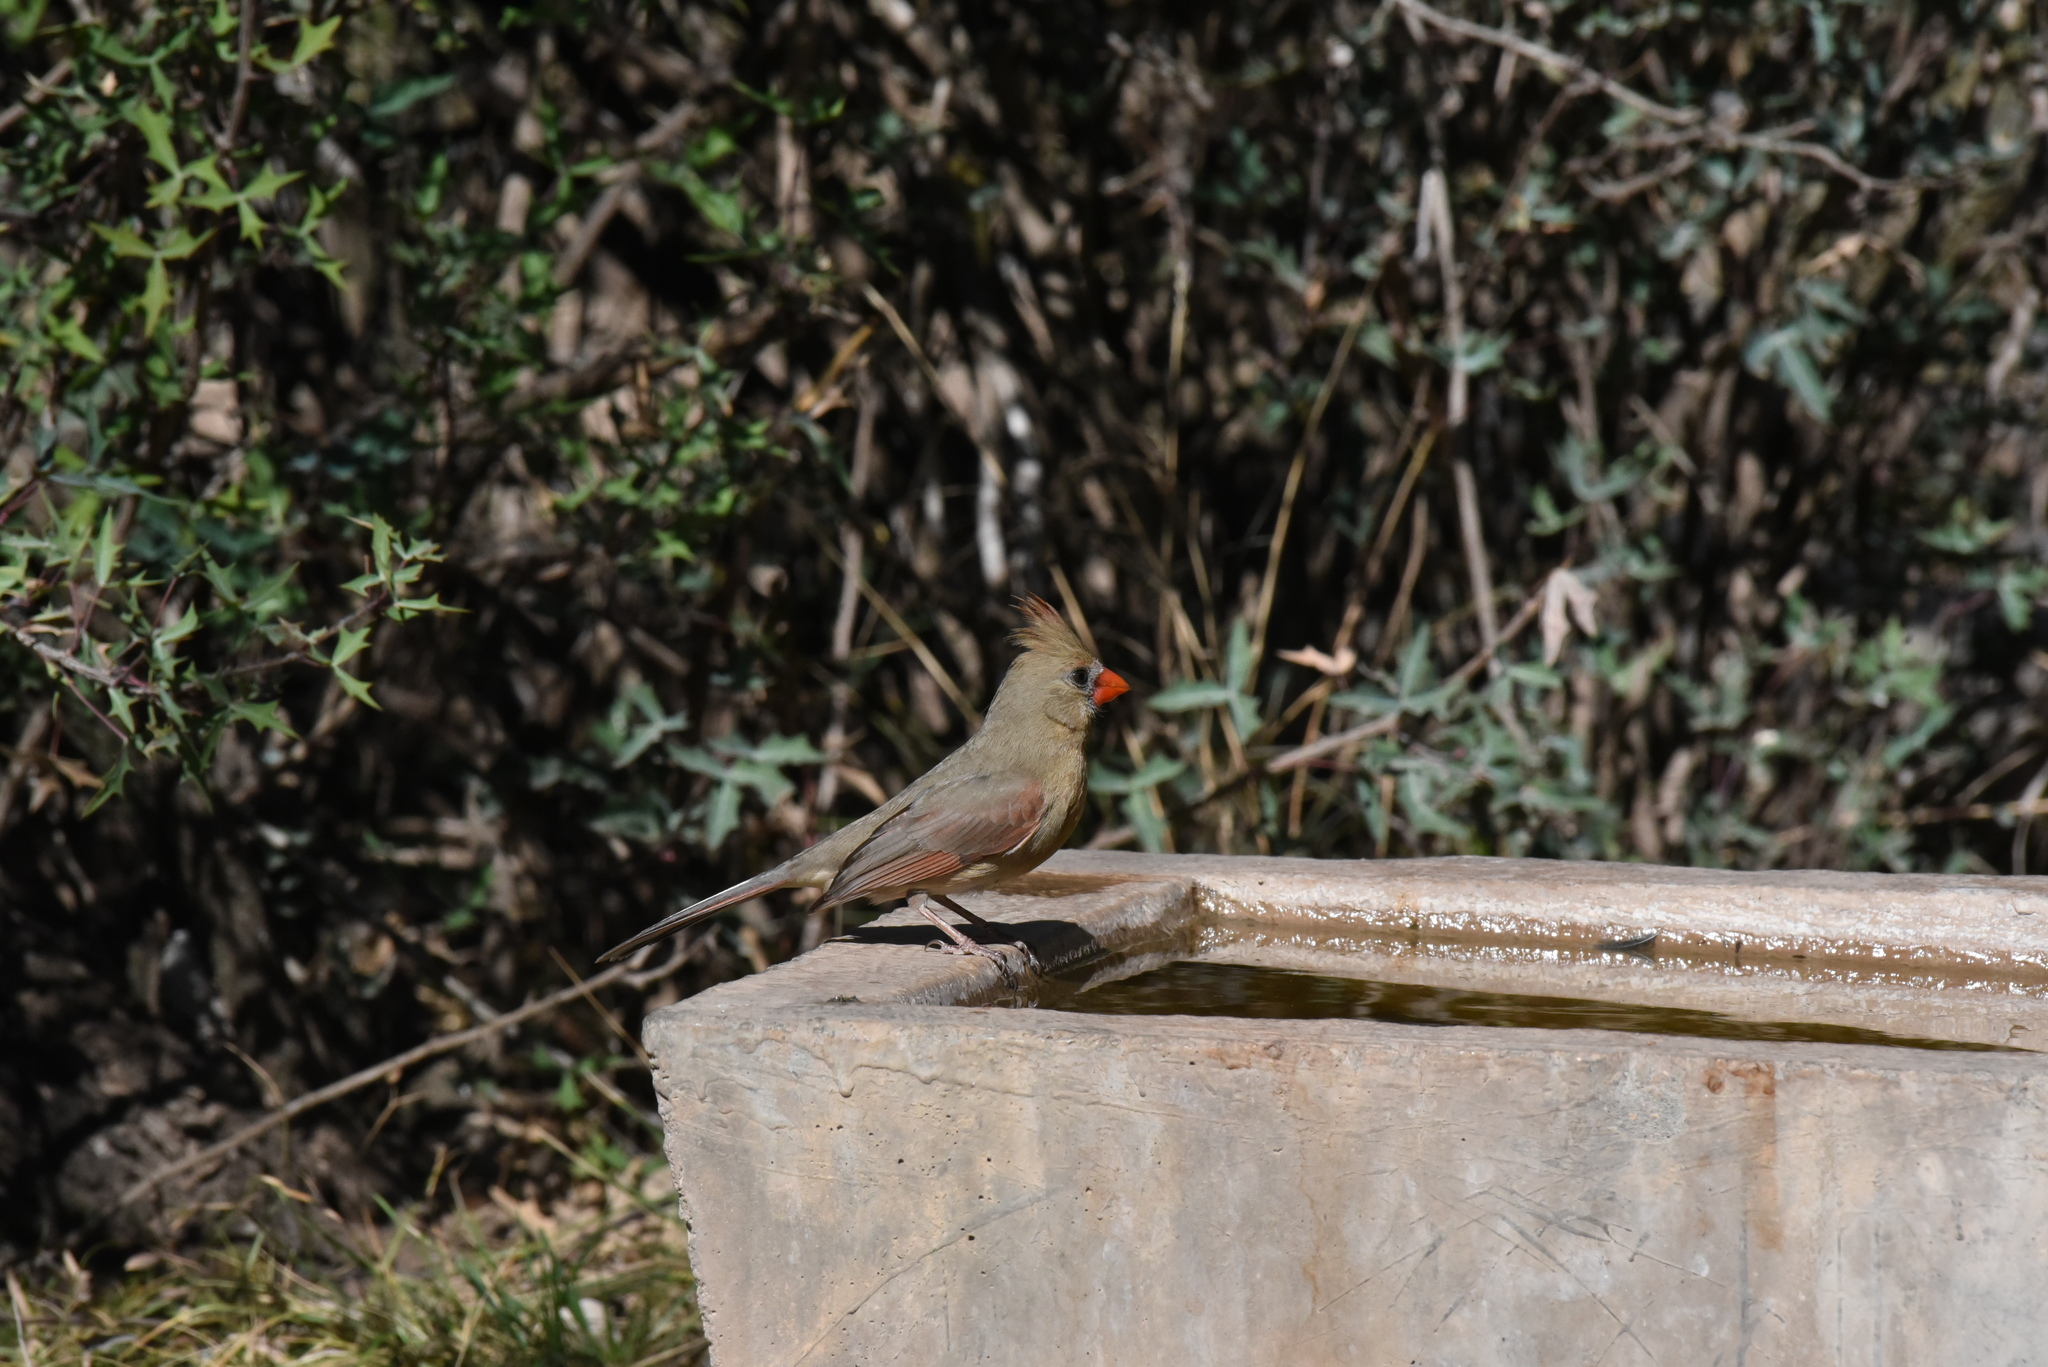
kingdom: Animalia
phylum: Chordata
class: Aves
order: Passeriformes
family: Cardinalidae
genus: Cardinalis
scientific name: Cardinalis cardinalis
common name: Northern cardinal
